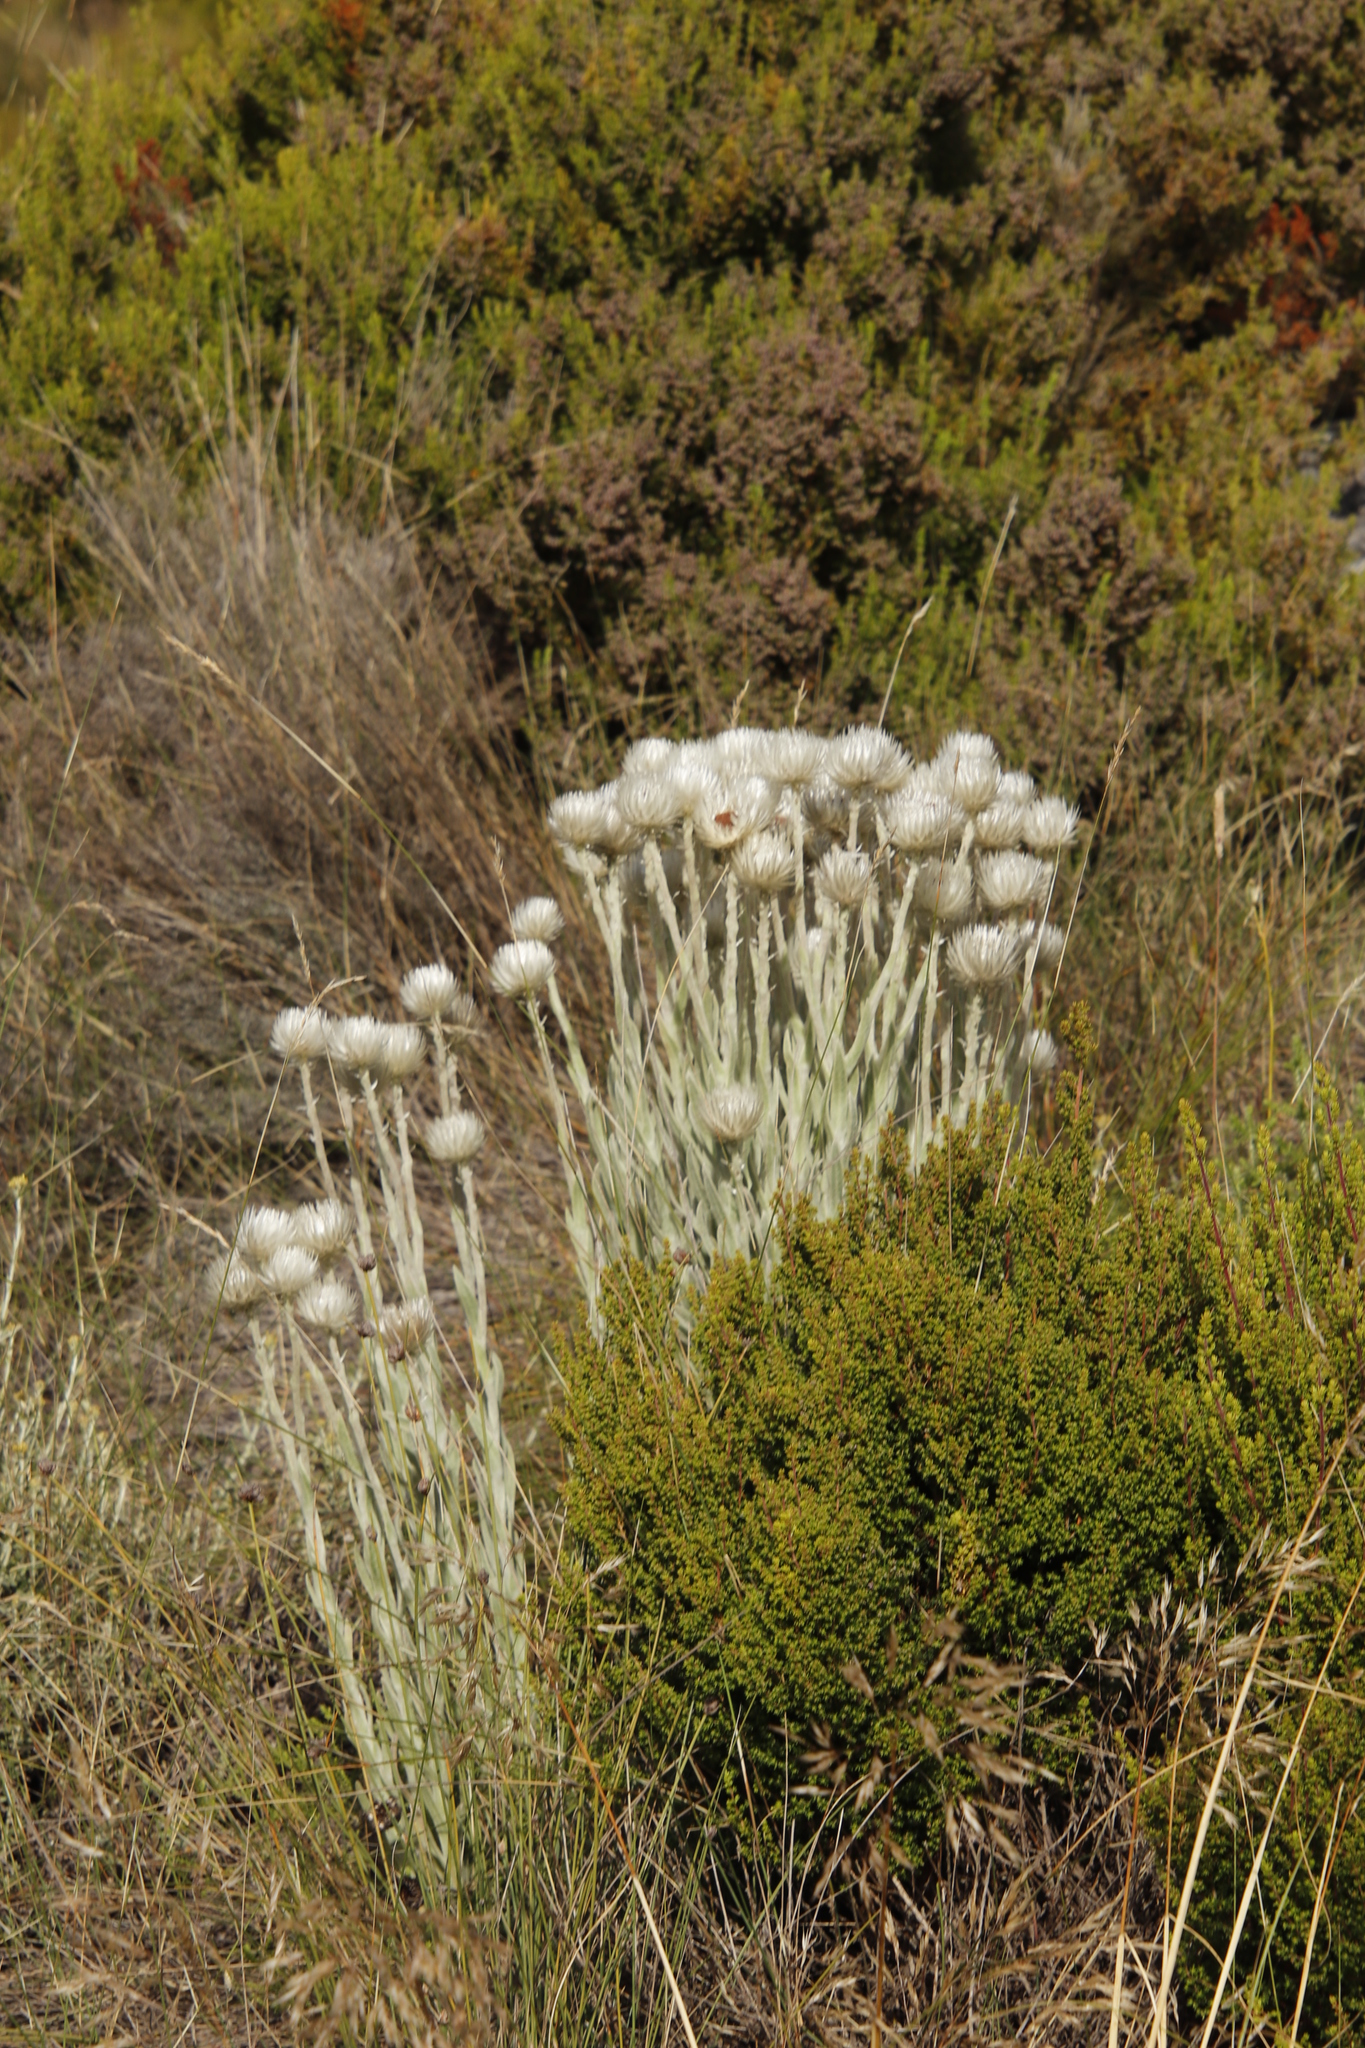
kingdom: Plantae
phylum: Tracheophyta
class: Magnoliopsida
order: Asterales
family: Asteraceae
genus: Syncarpha
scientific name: Syncarpha vestita
